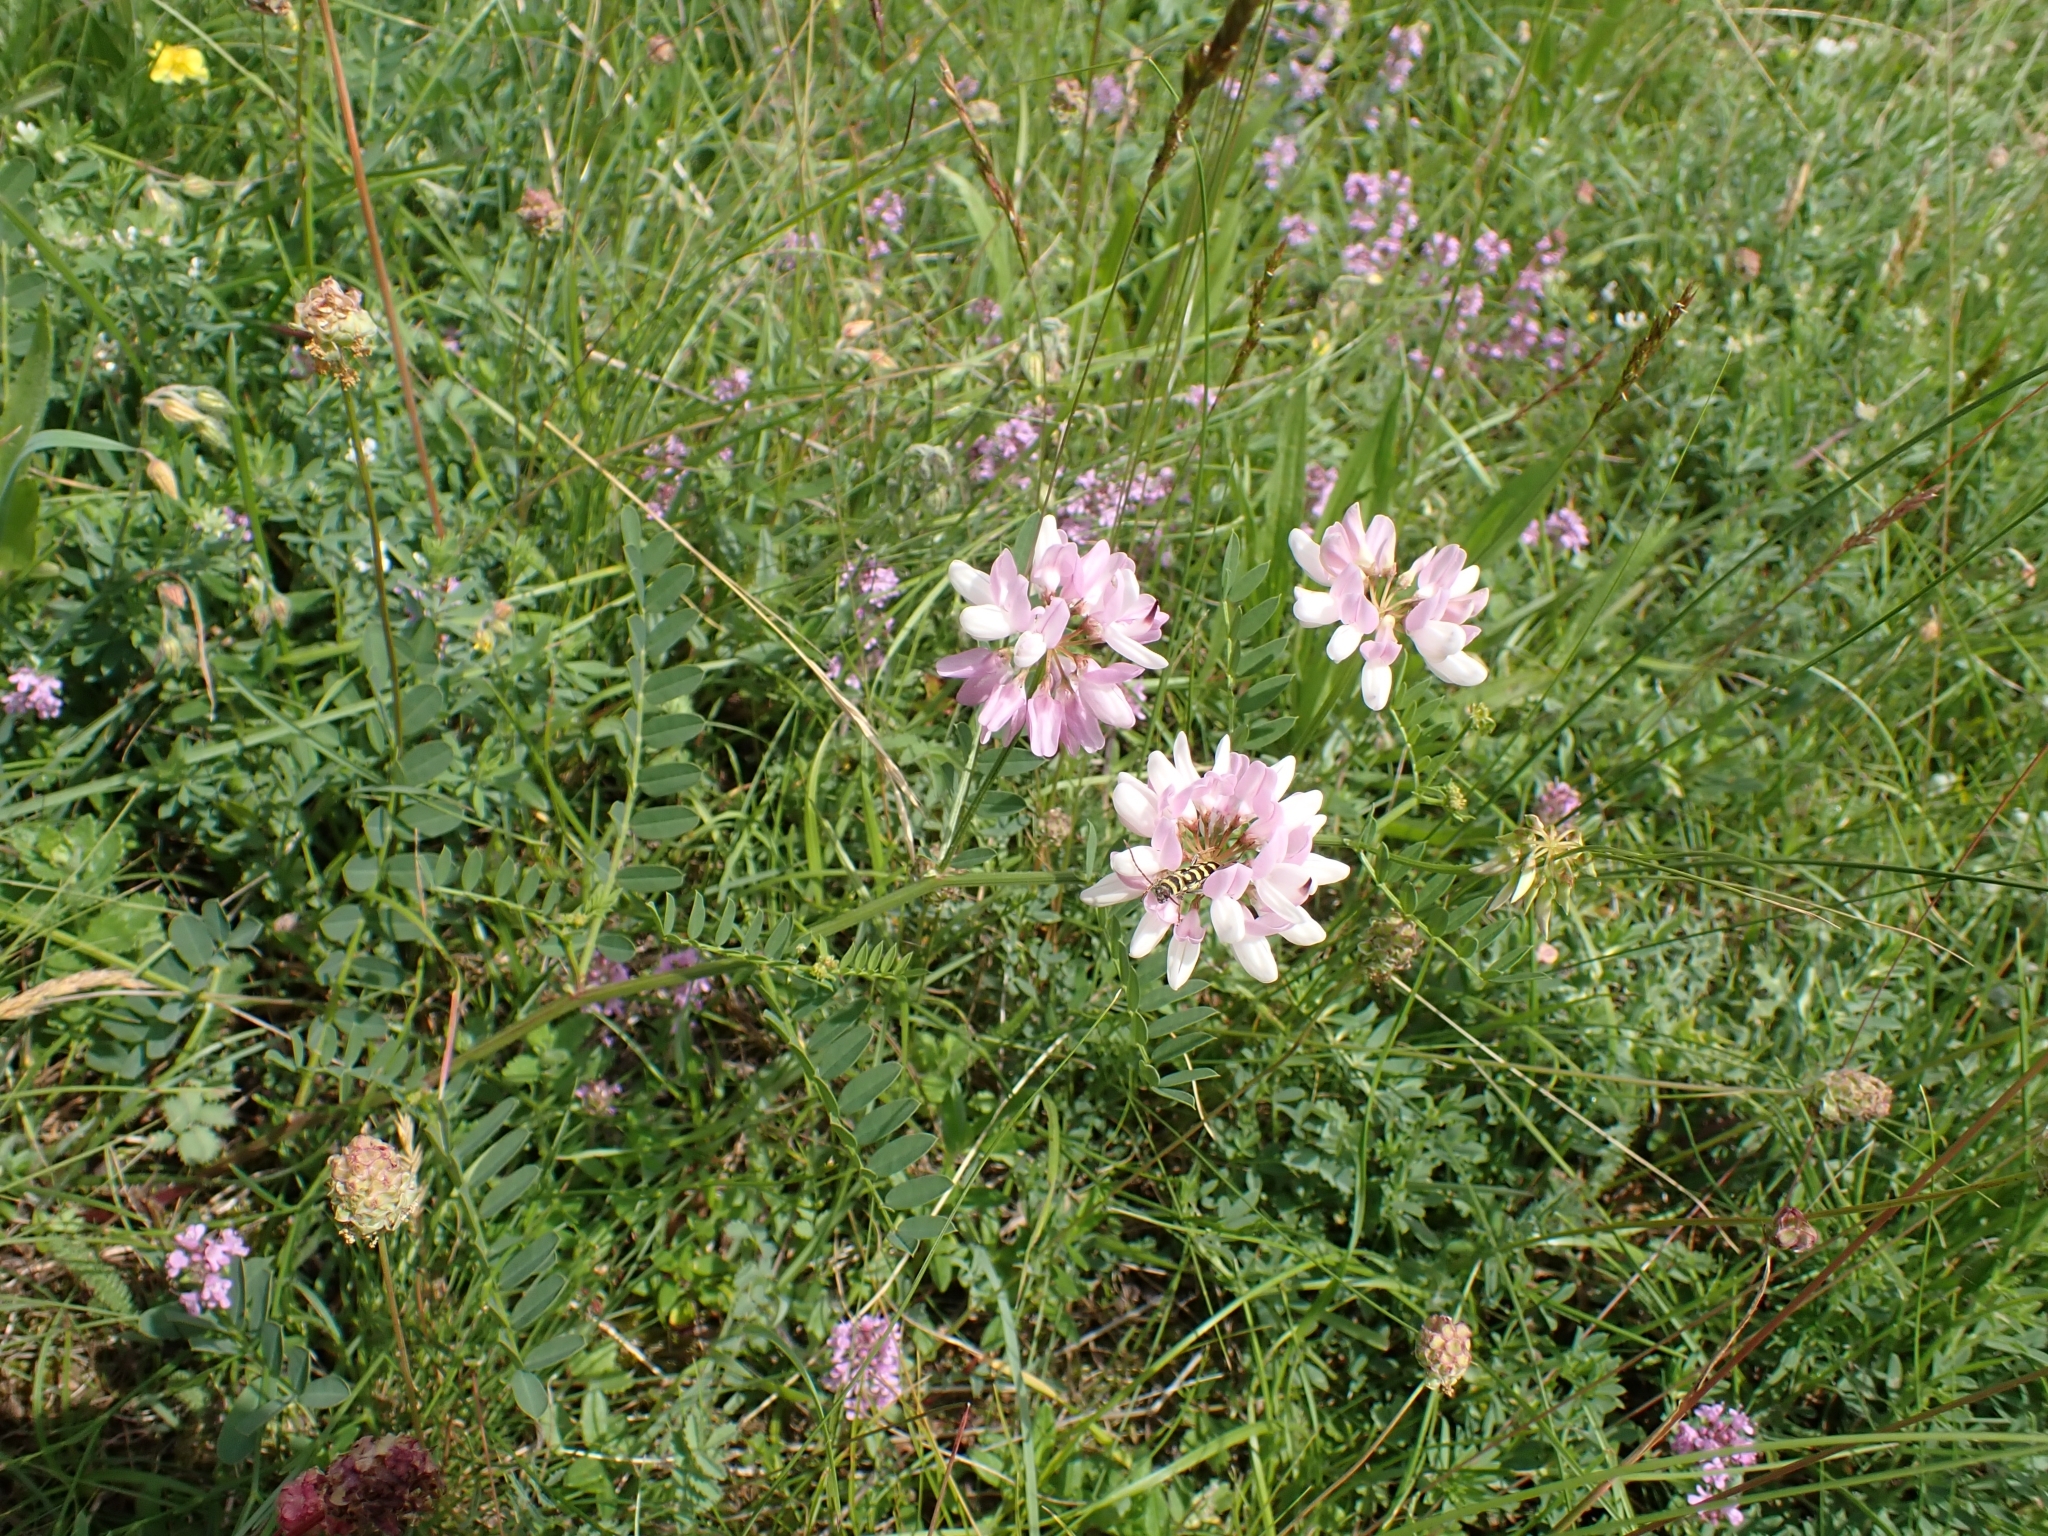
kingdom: Plantae
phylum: Tracheophyta
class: Magnoliopsida
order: Fabales
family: Fabaceae
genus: Coronilla
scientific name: Coronilla varia
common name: Crownvetch
